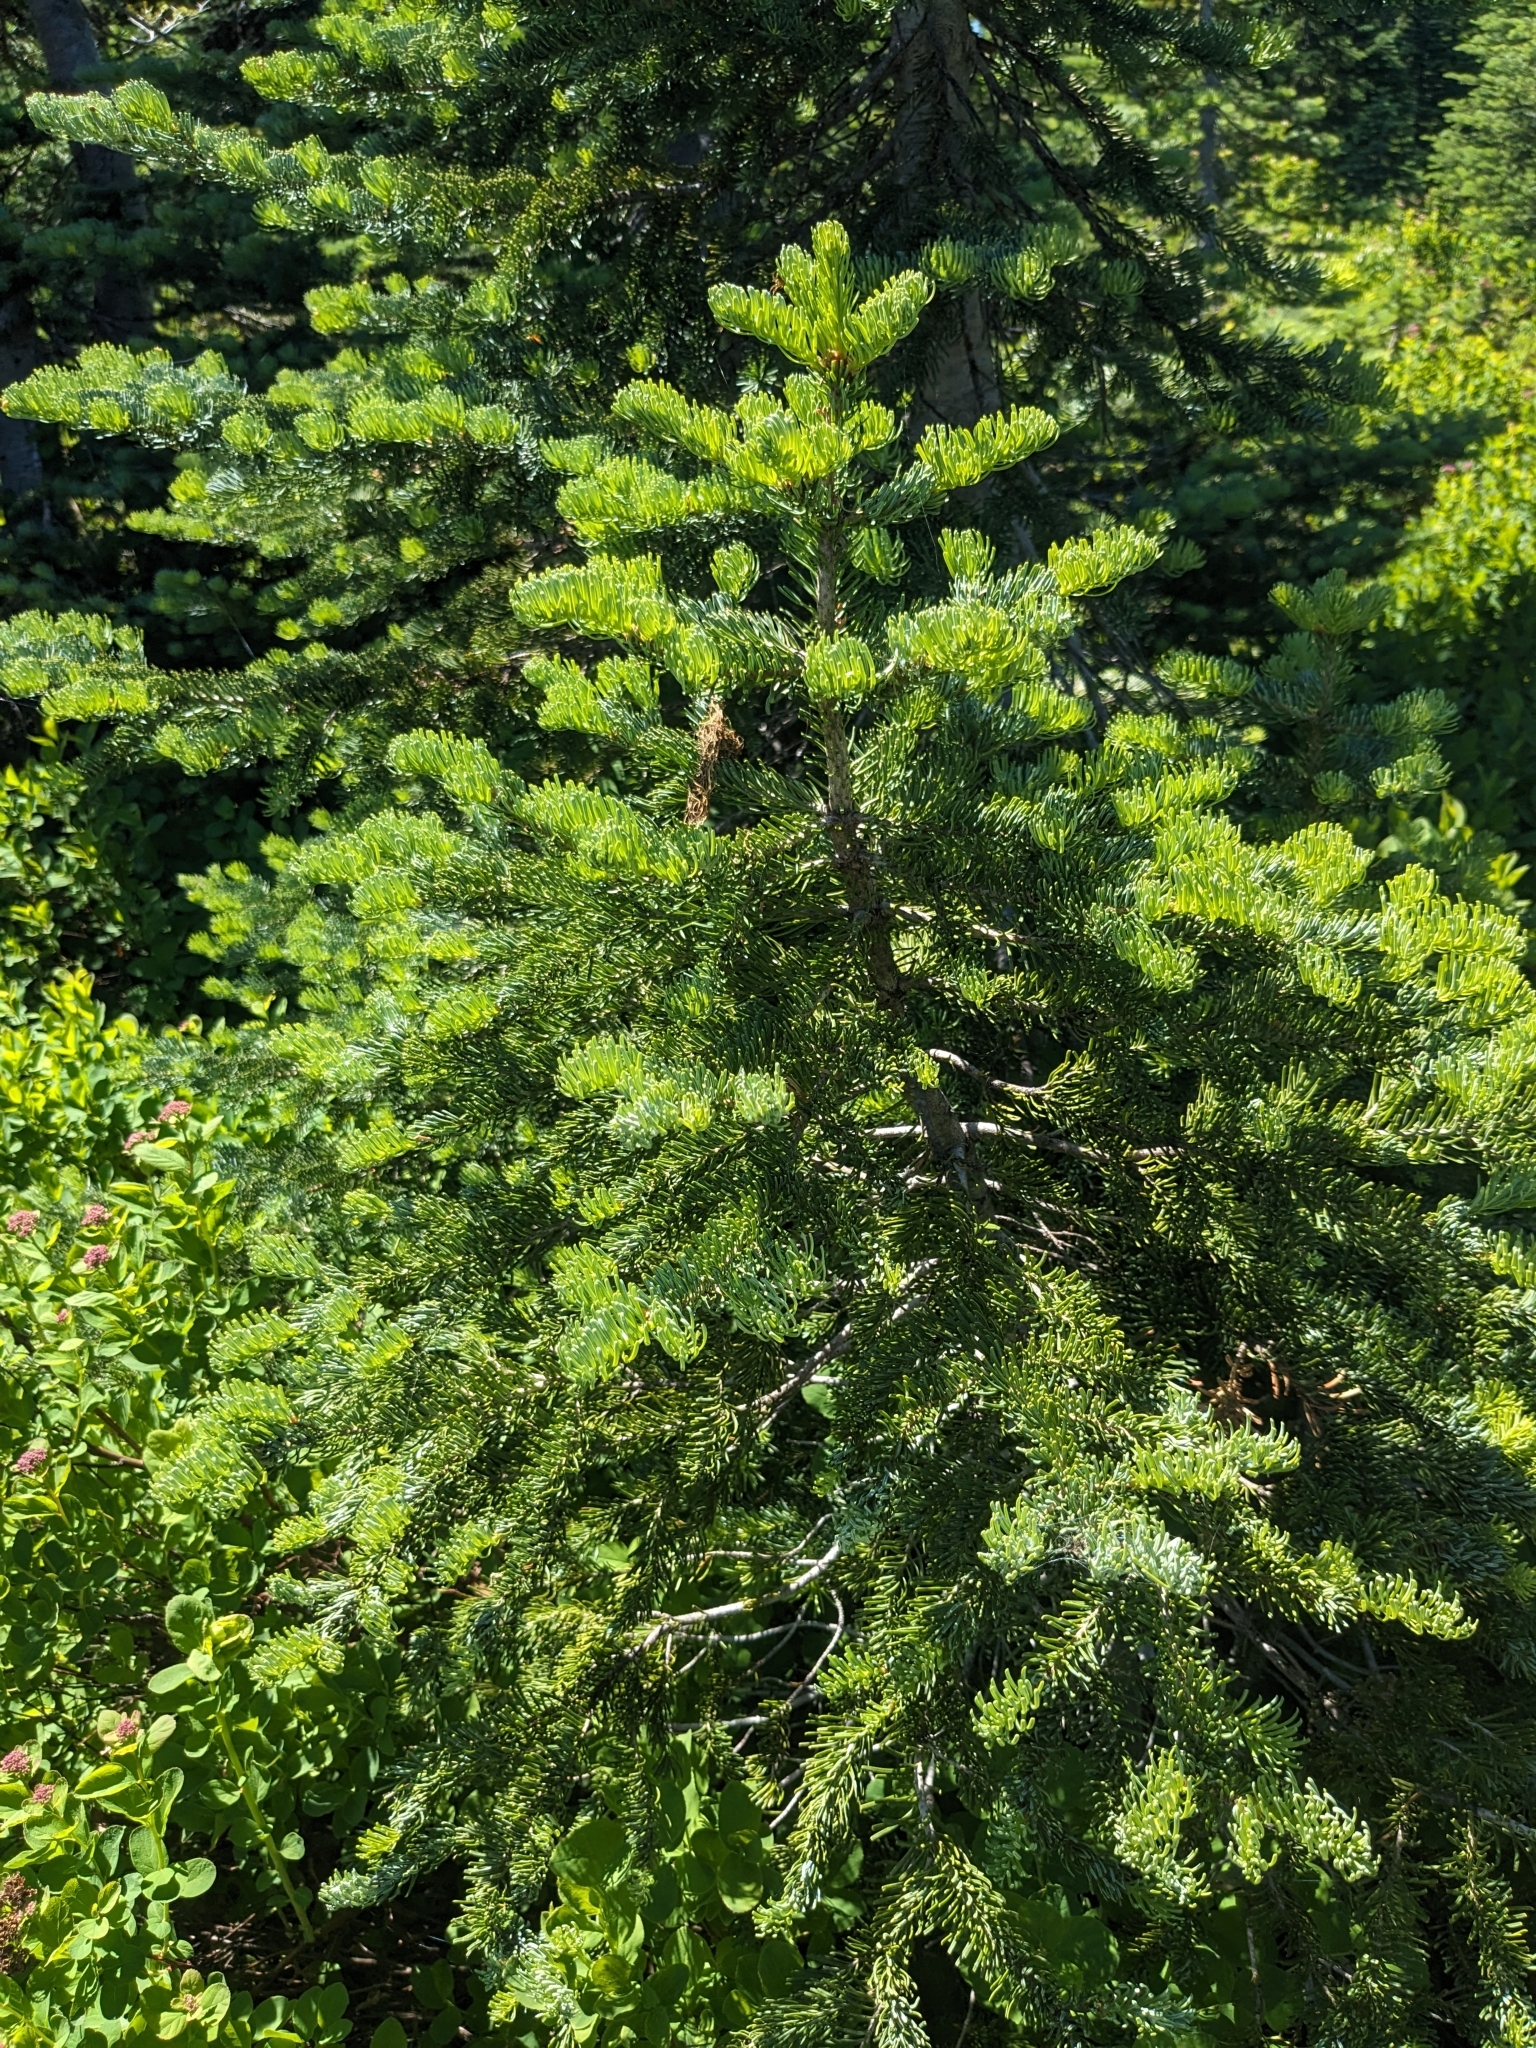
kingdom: Plantae
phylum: Tracheophyta
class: Pinopsida
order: Pinales
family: Pinaceae
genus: Abies
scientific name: Abies lasiocarpa
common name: Subalpine fir
